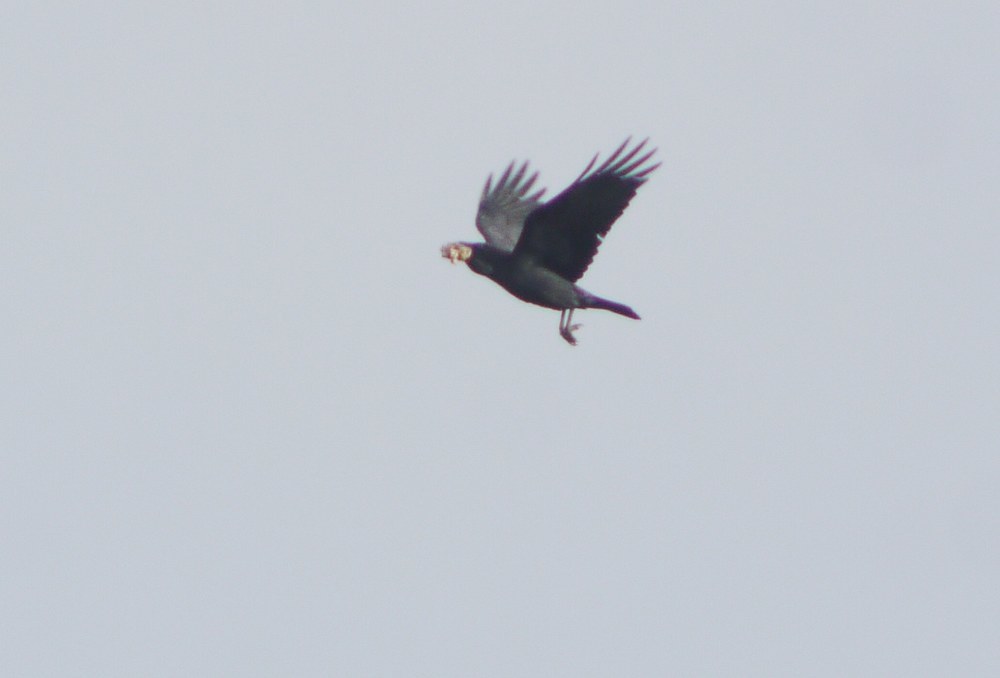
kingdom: Animalia
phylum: Chordata
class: Aves
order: Passeriformes
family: Corvidae
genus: Corvus
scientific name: Corvus corax
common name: Common raven
